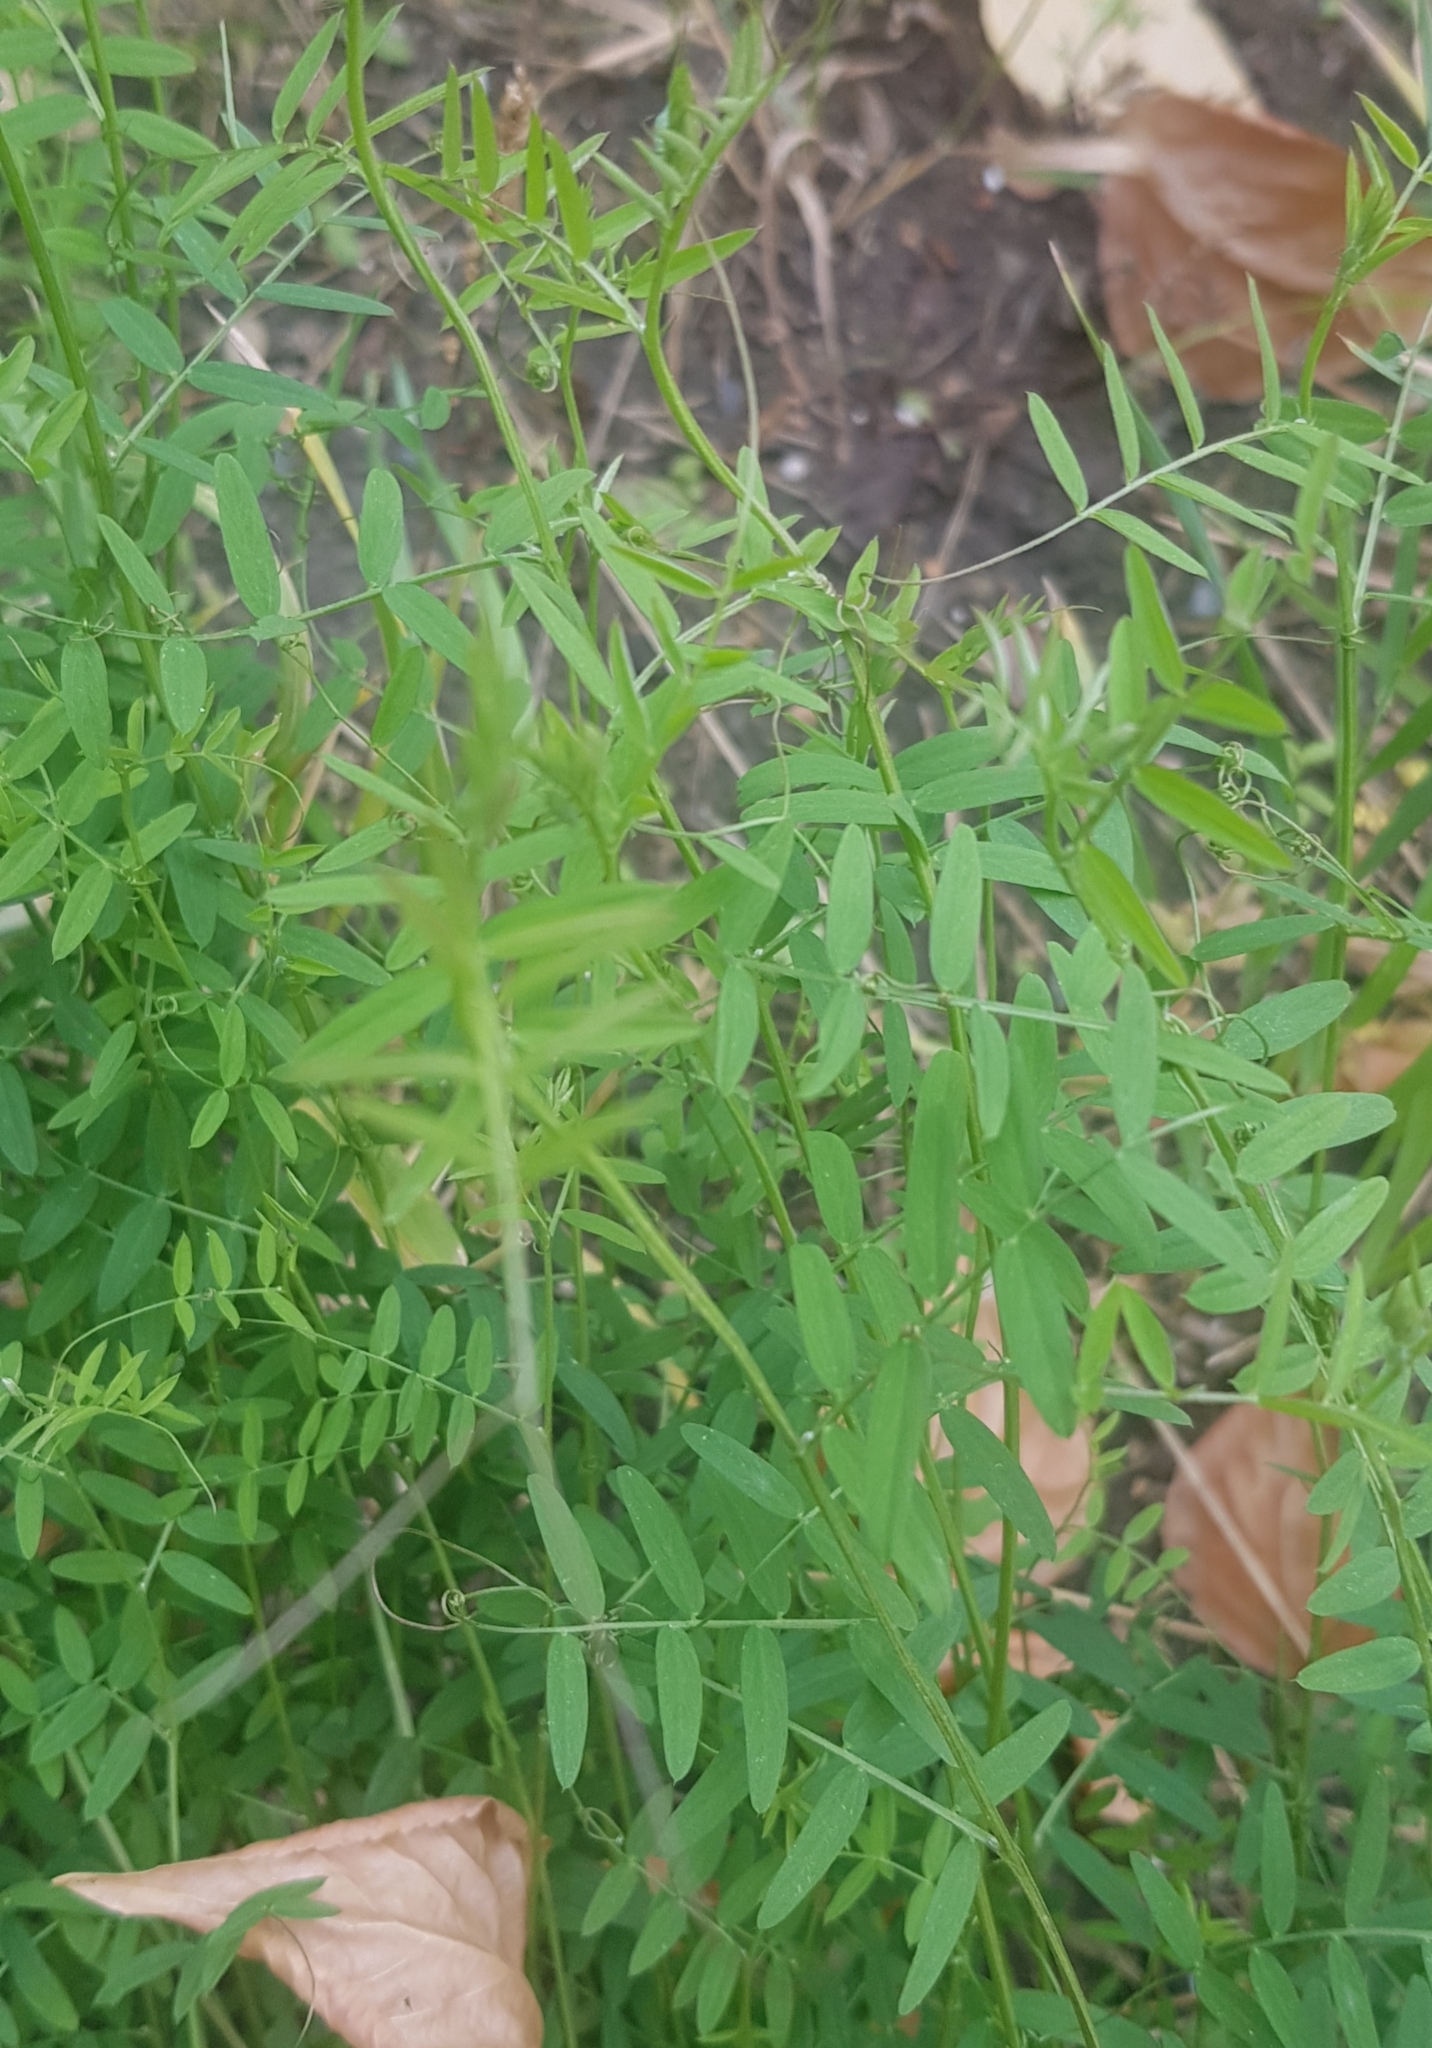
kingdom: Plantae
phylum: Tracheophyta
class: Magnoliopsida
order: Fabales
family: Fabaceae
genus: Vicia
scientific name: Vicia cracca
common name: Bird vetch
